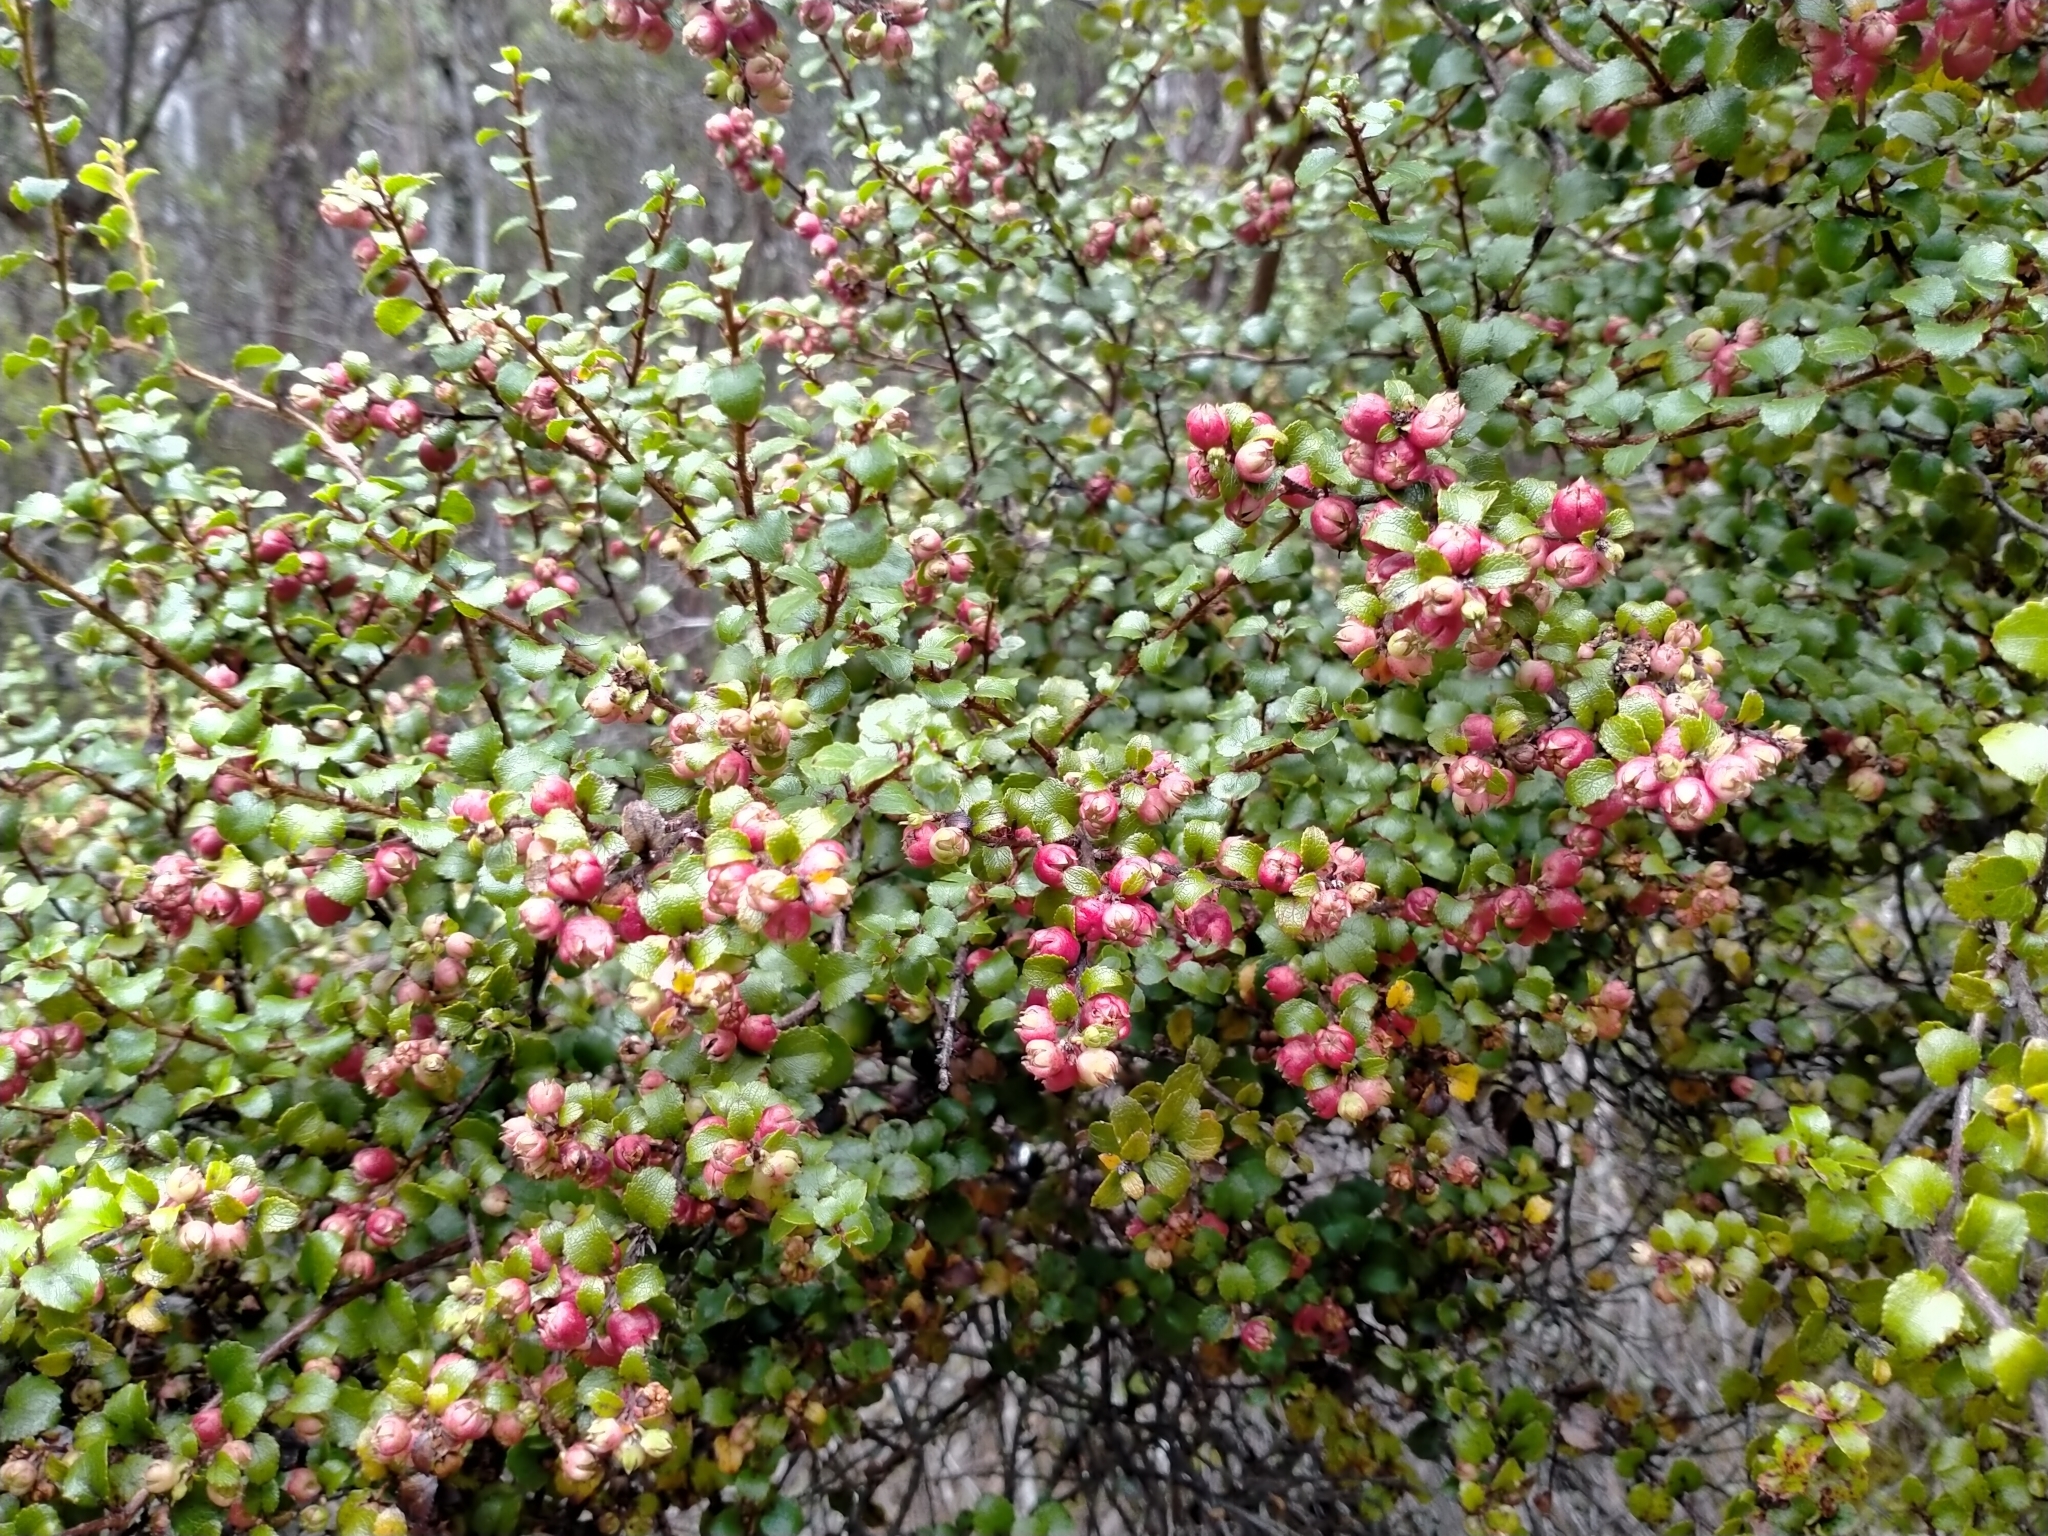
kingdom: Plantae
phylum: Tracheophyta
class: Magnoliopsida
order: Ericales
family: Ericaceae
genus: Gaultheria
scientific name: Gaultheria antipoda
